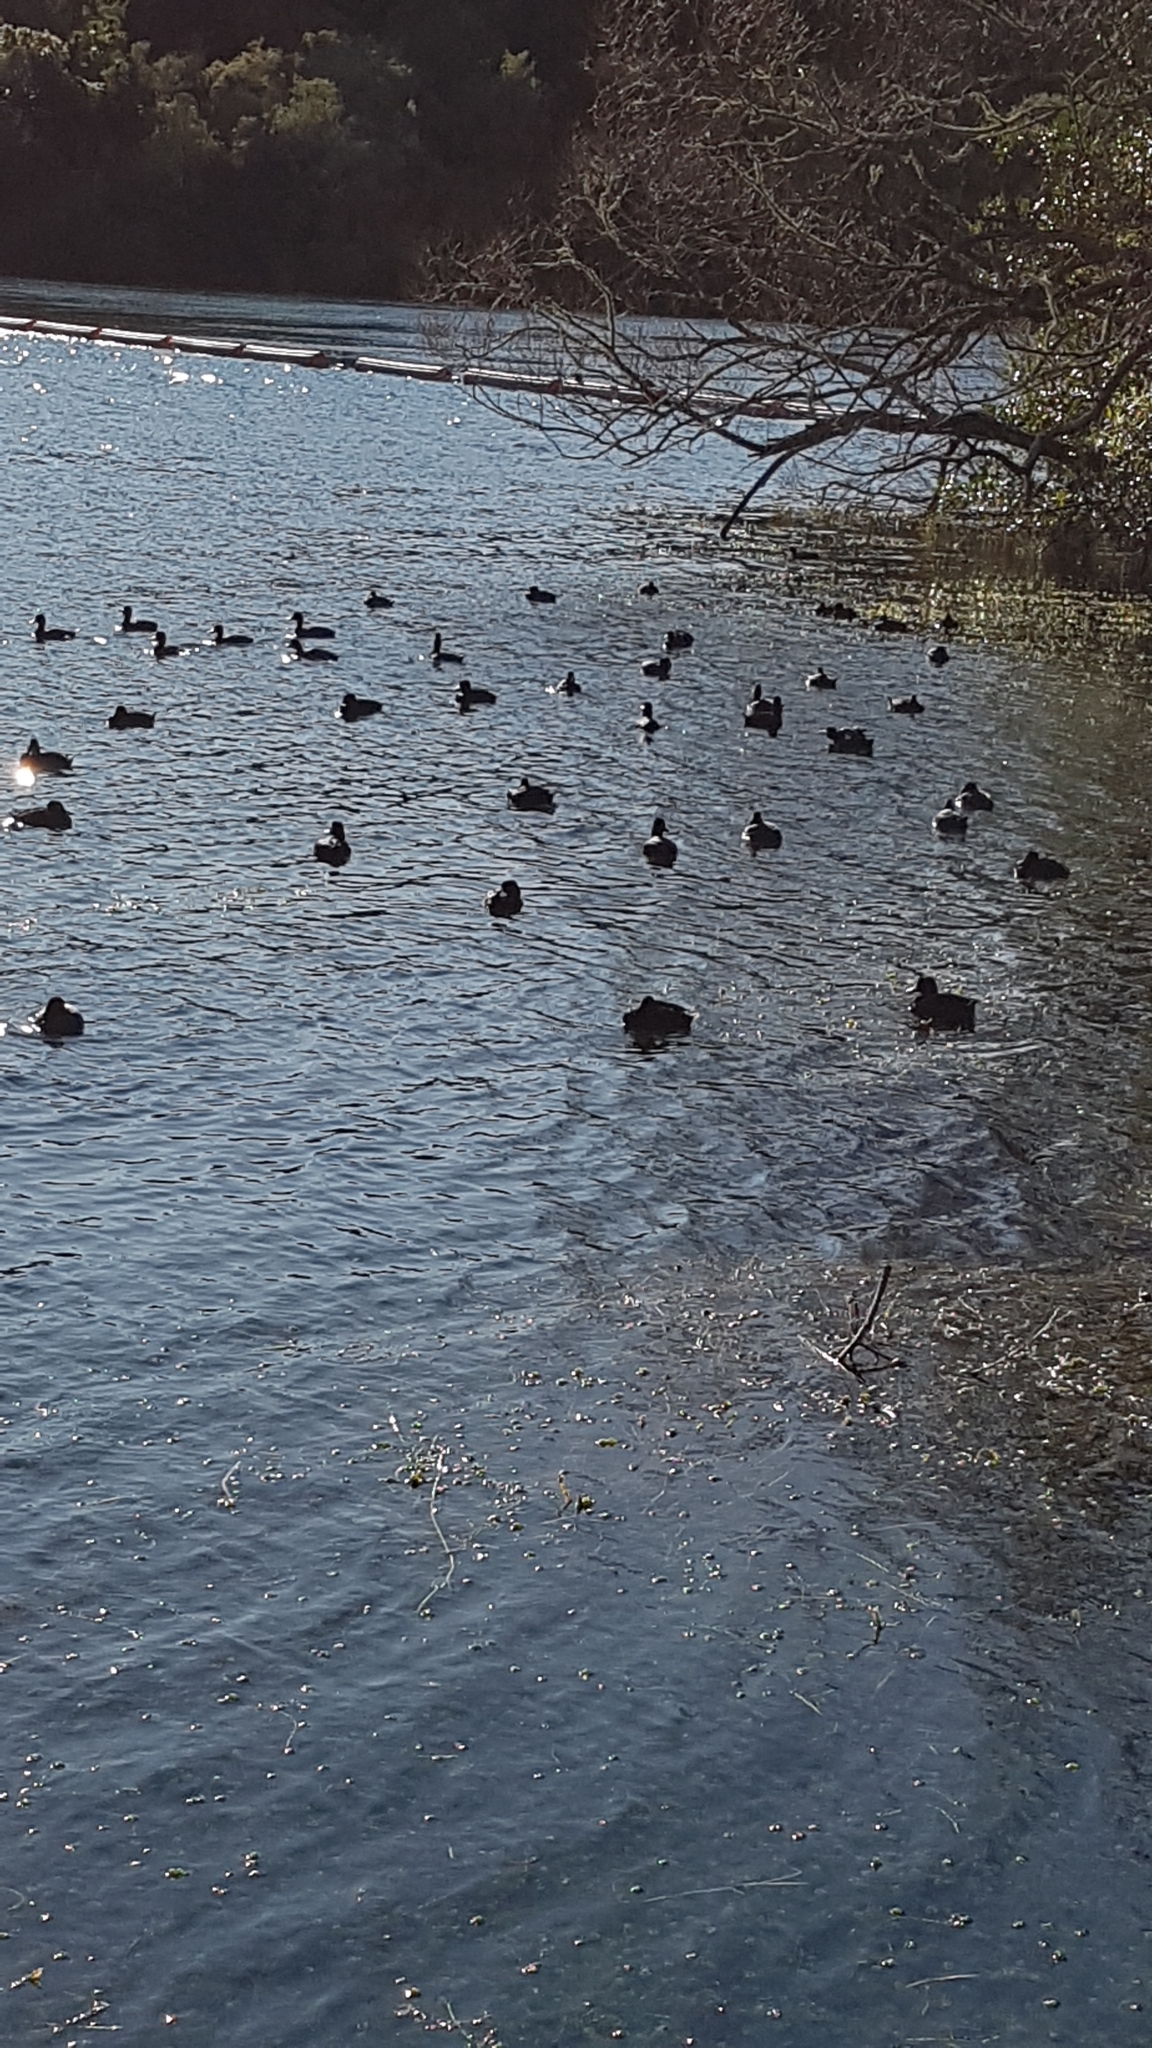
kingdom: Animalia
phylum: Chordata
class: Aves
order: Anseriformes
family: Anatidae
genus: Aythya
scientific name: Aythya novaeseelandiae
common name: New zealand scaup
